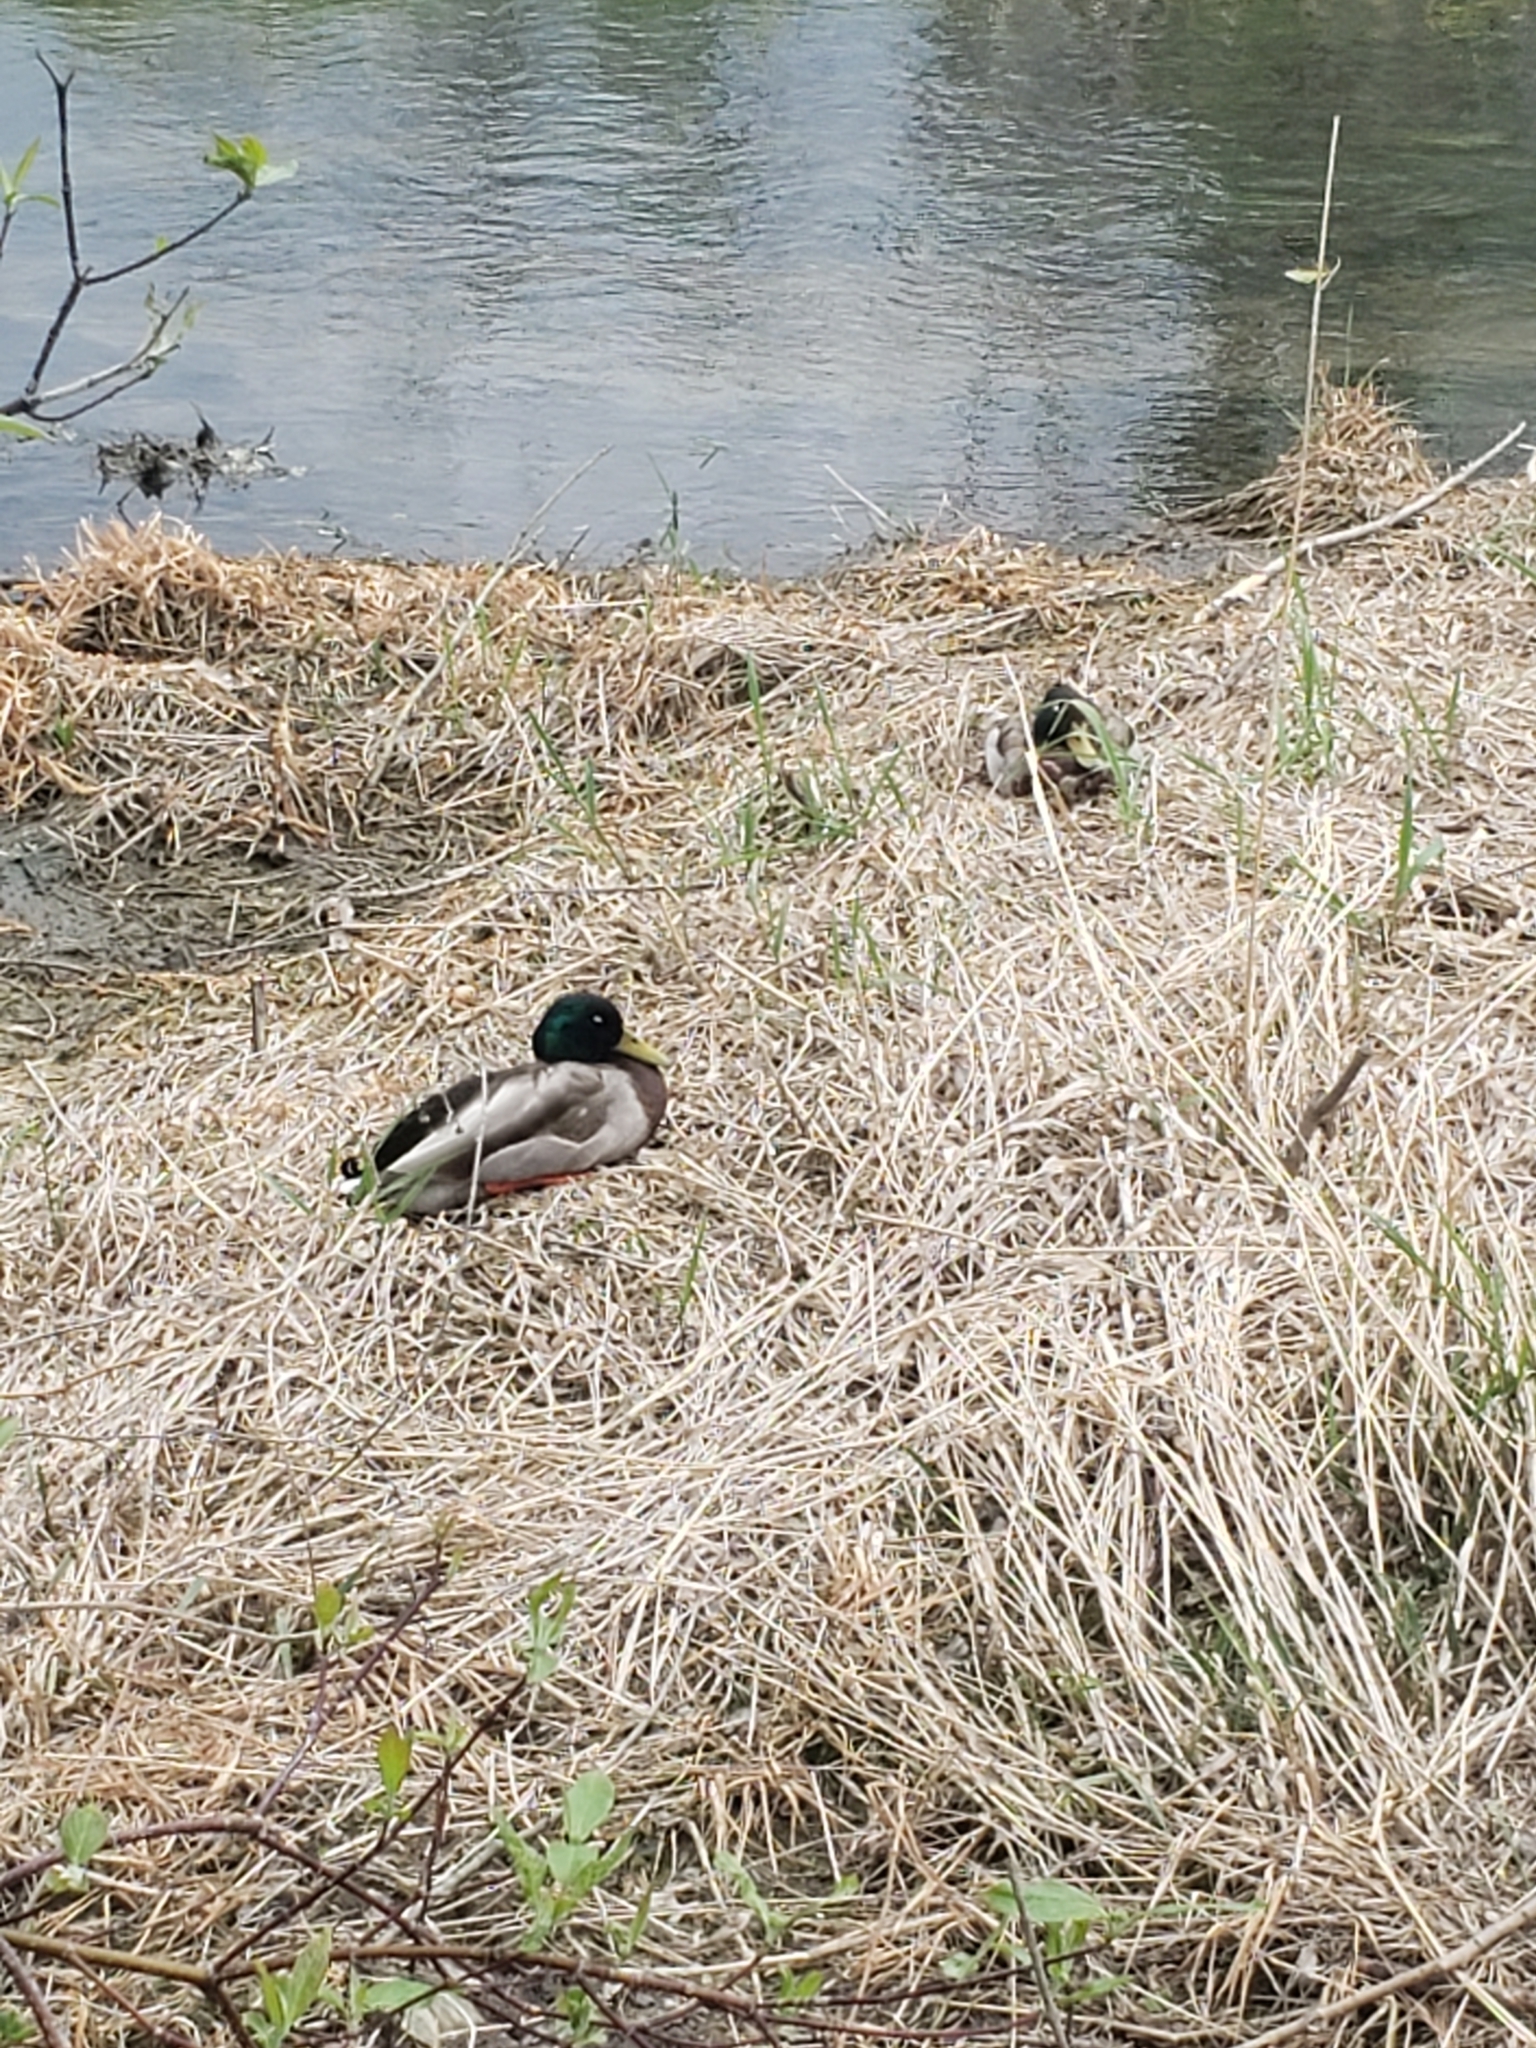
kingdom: Animalia
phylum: Chordata
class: Aves
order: Anseriformes
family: Anatidae
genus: Anas
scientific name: Anas platyrhynchos
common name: Mallard
